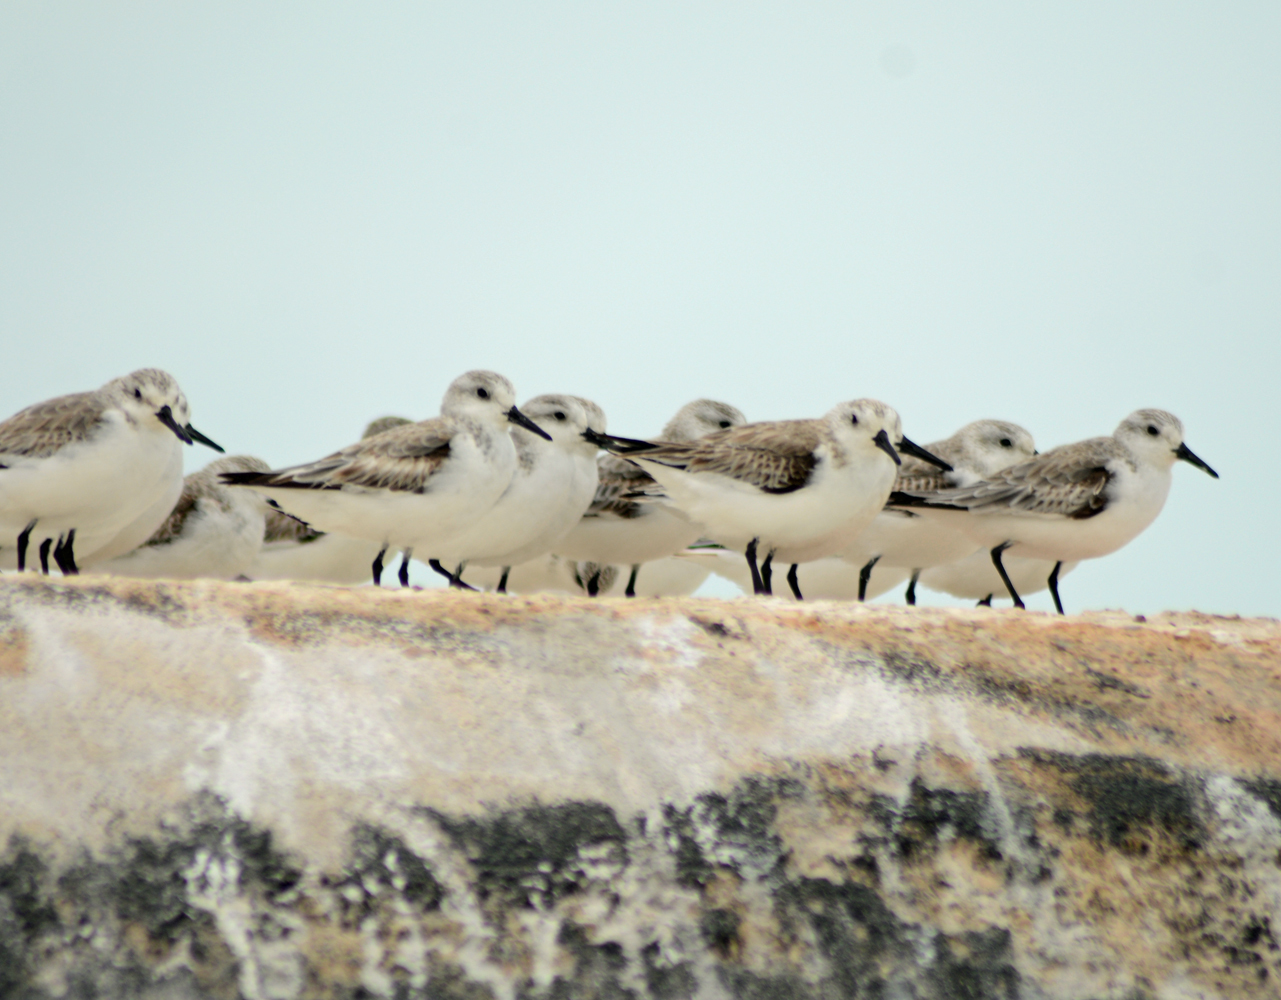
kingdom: Animalia
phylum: Chordata
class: Aves
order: Charadriiformes
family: Scolopacidae
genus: Calidris
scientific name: Calidris alba
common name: Sanderling
